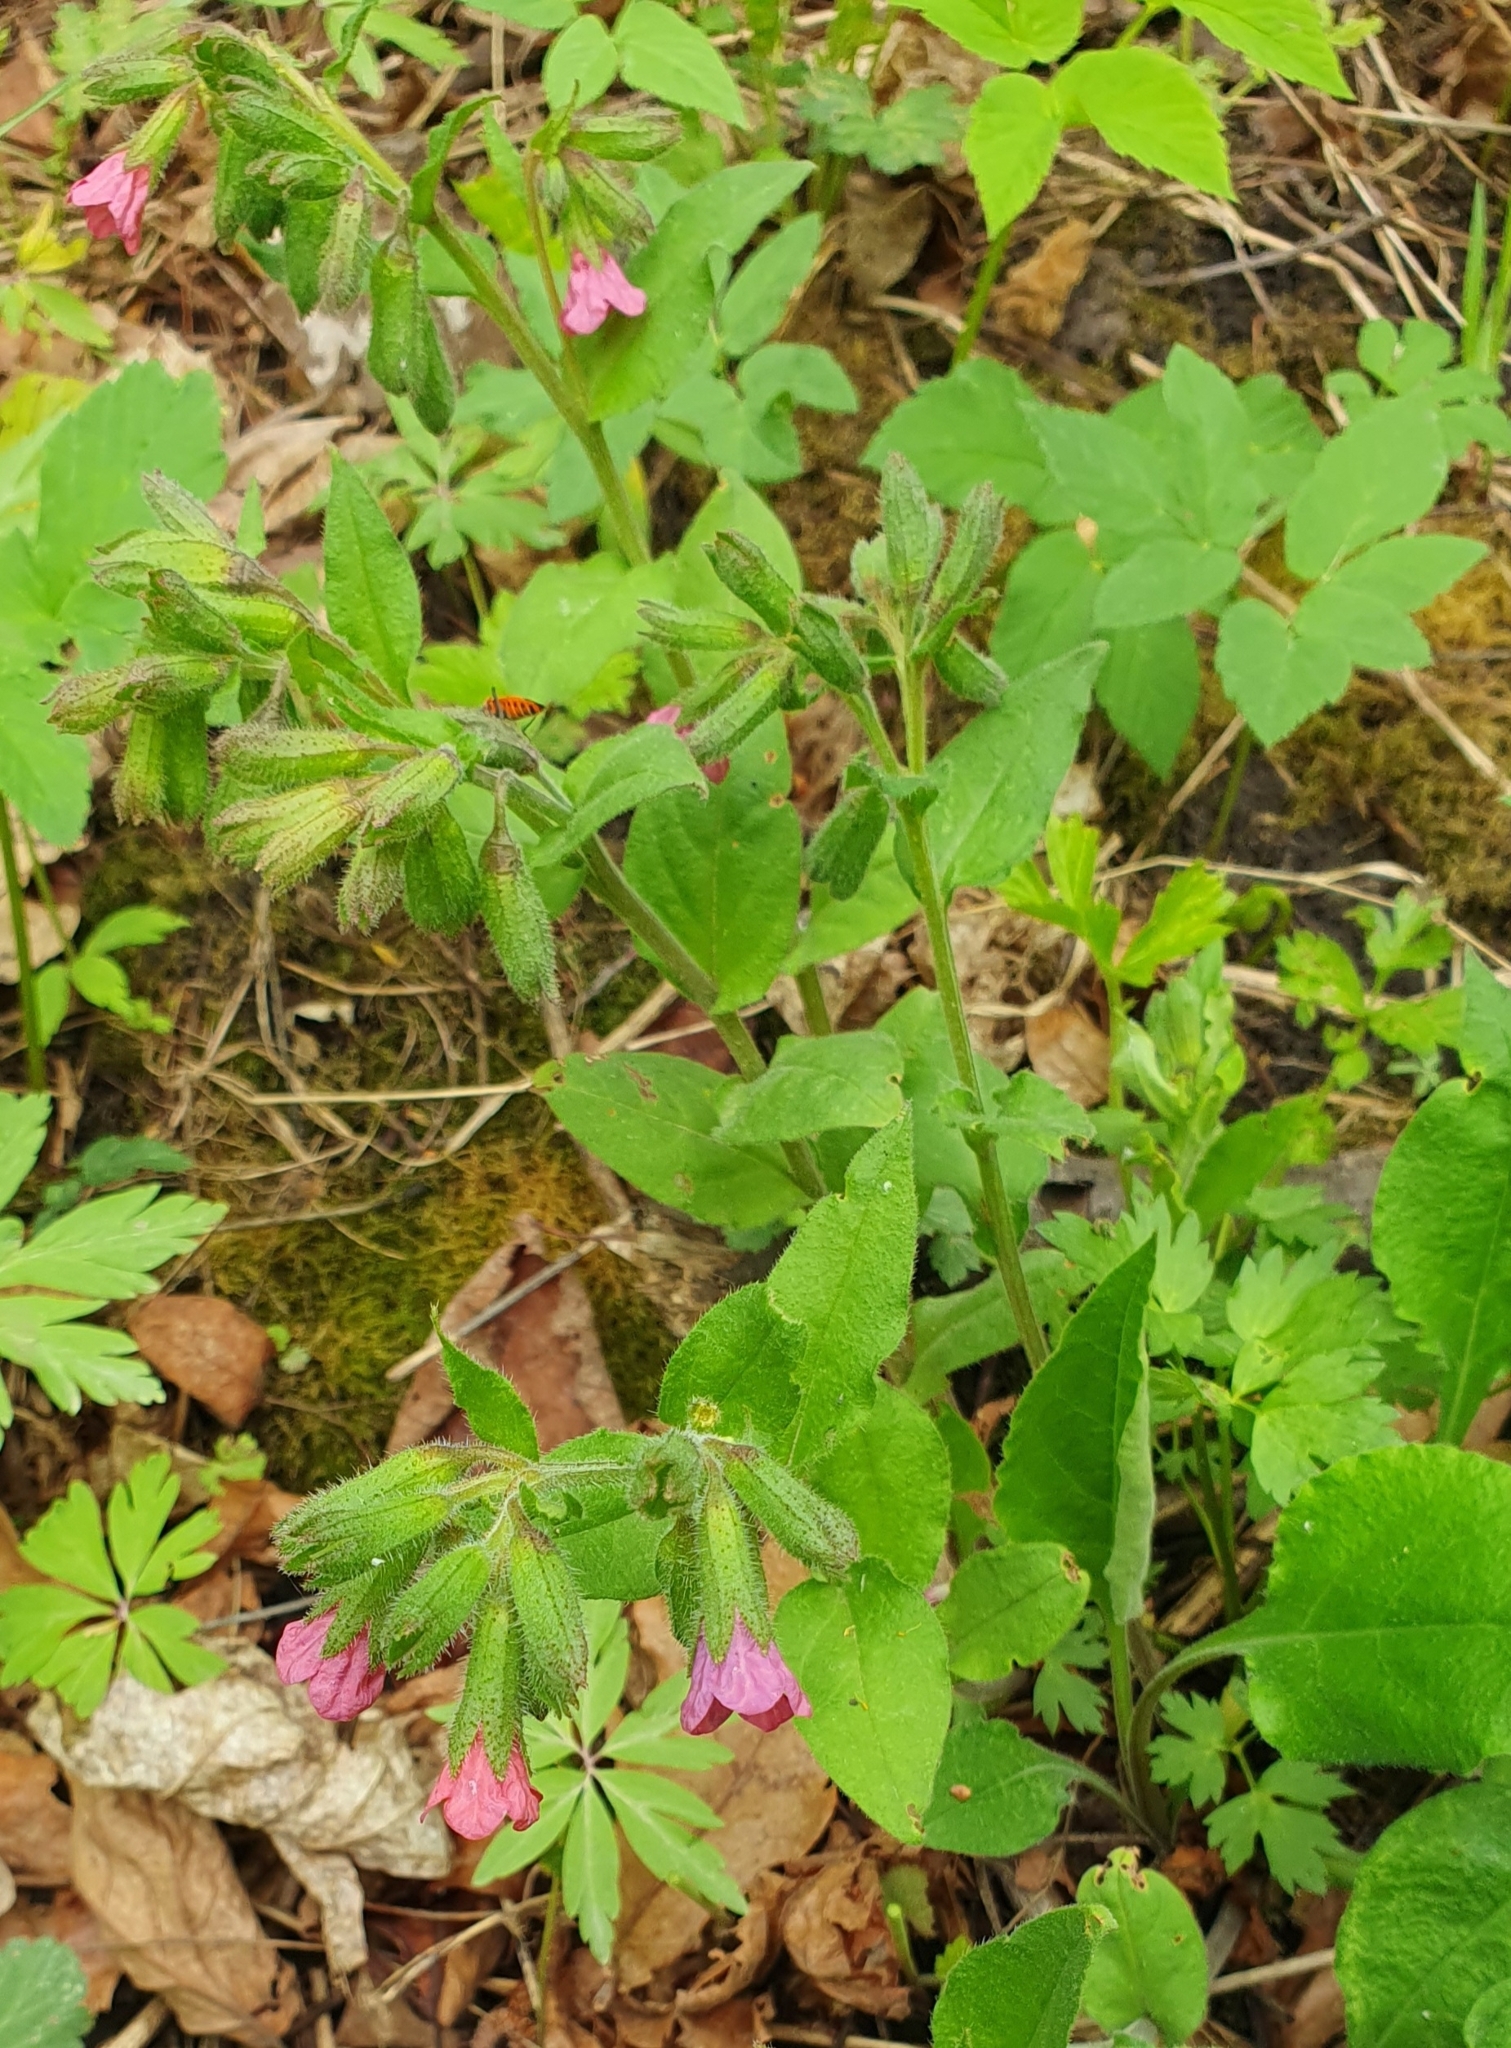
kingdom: Plantae
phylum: Tracheophyta
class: Magnoliopsida
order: Boraginales
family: Boraginaceae
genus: Pulmonaria
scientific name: Pulmonaria obscura
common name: Suffolk lungwort
